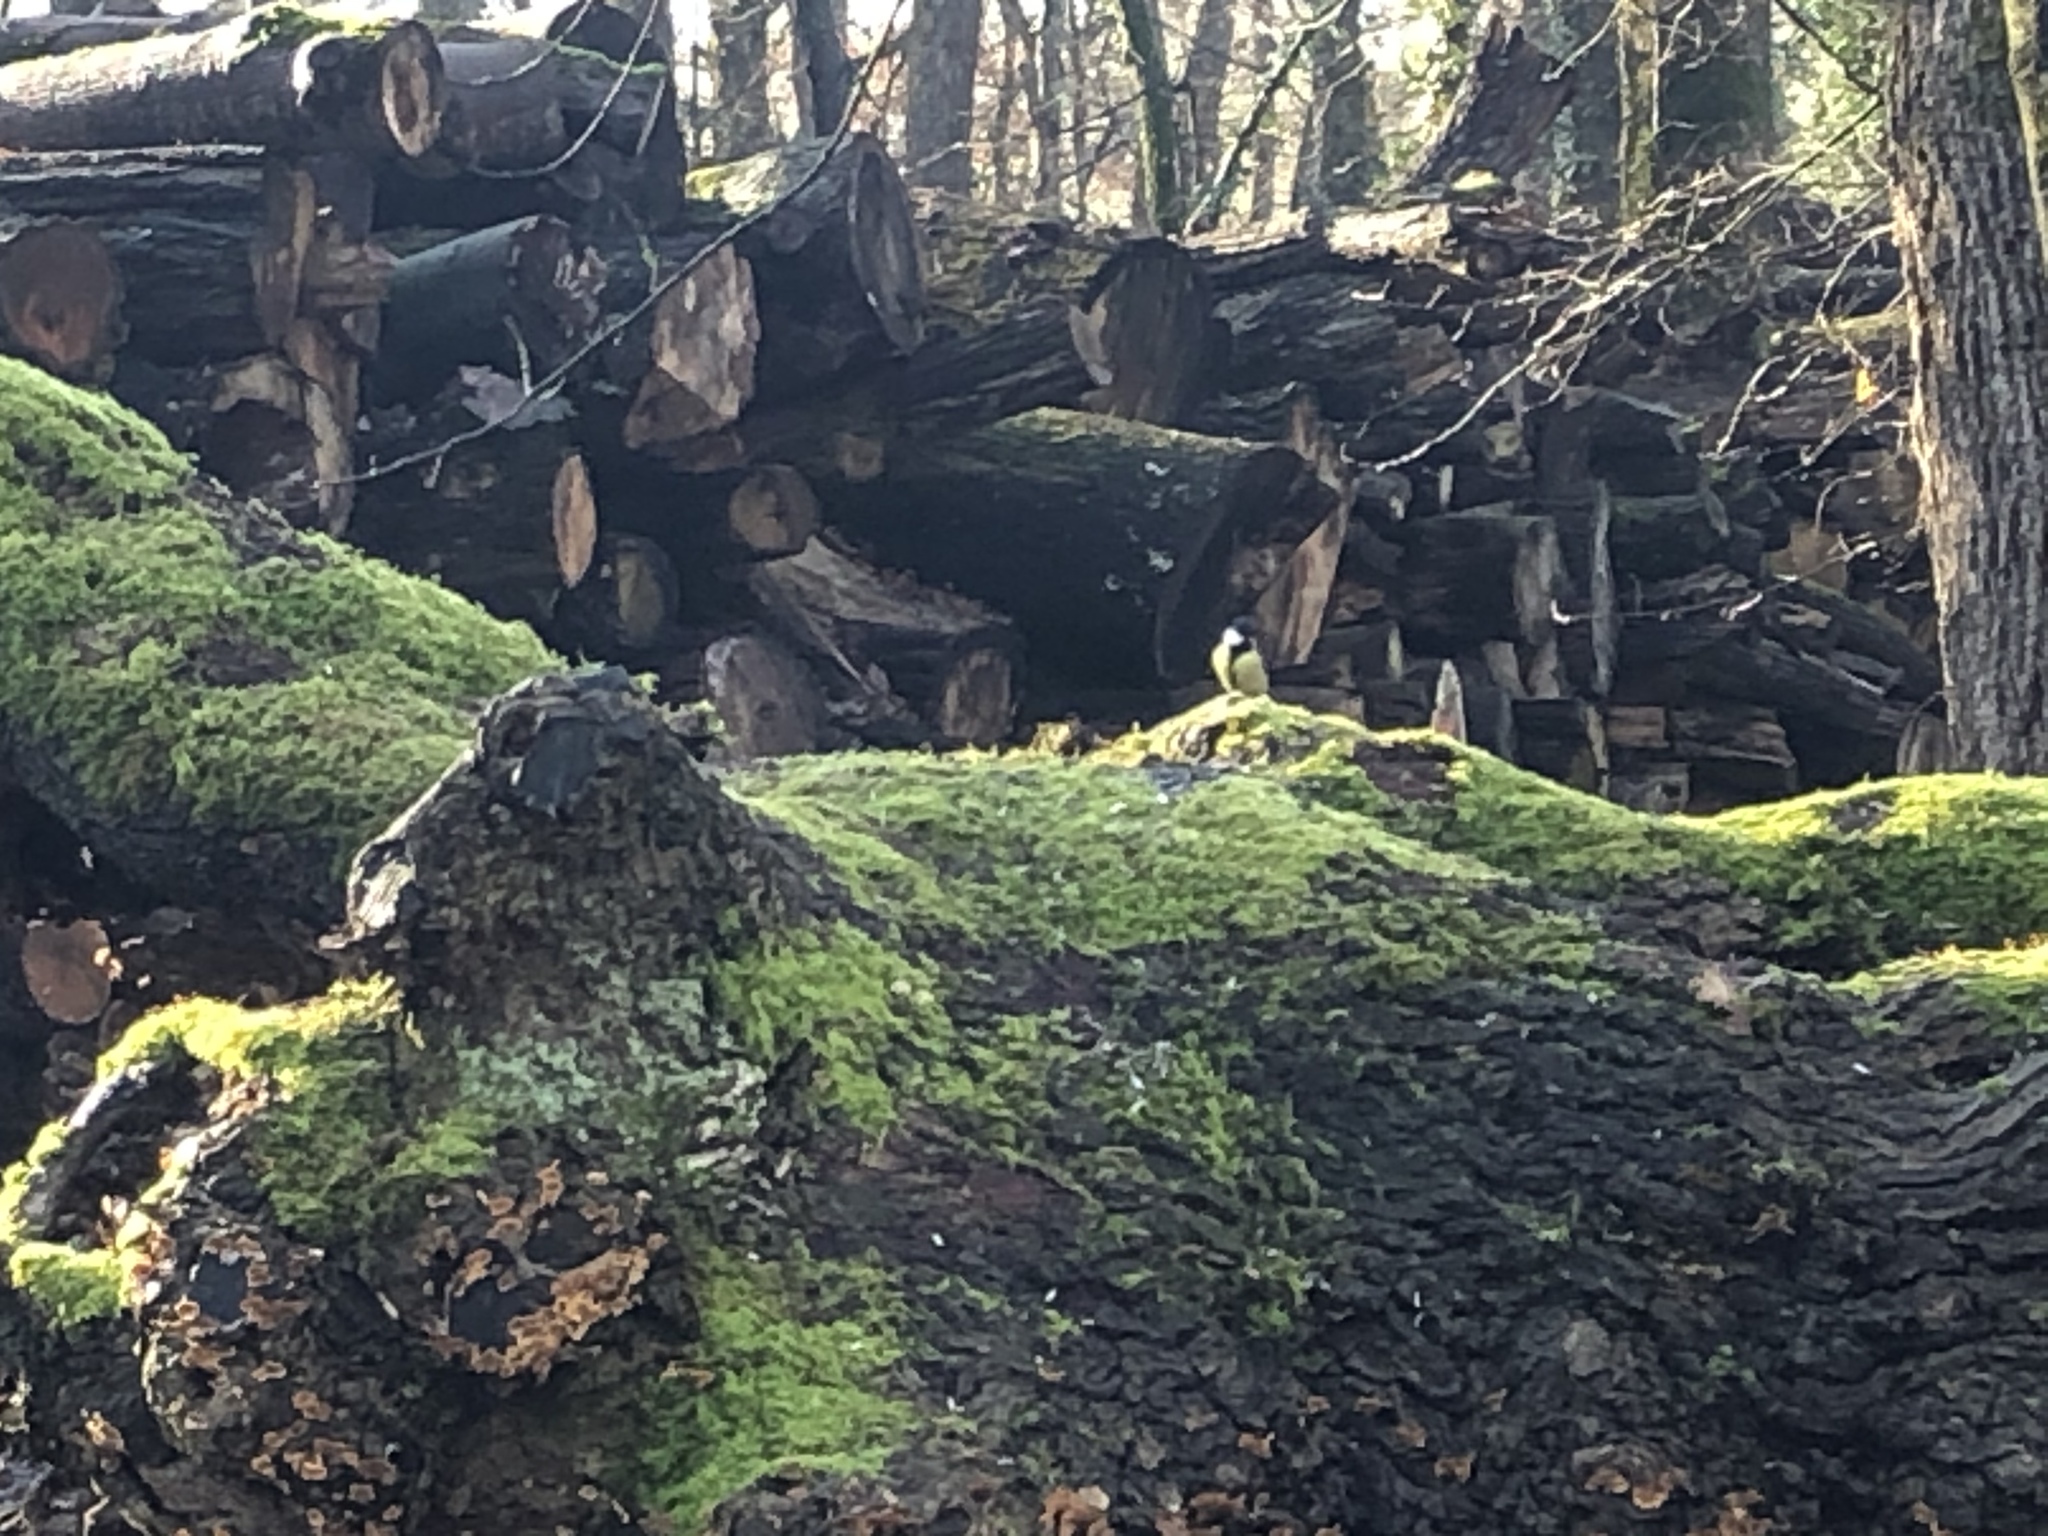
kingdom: Animalia
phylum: Chordata
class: Aves
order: Passeriformes
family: Paridae
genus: Parus
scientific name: Parus major
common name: Great tit
